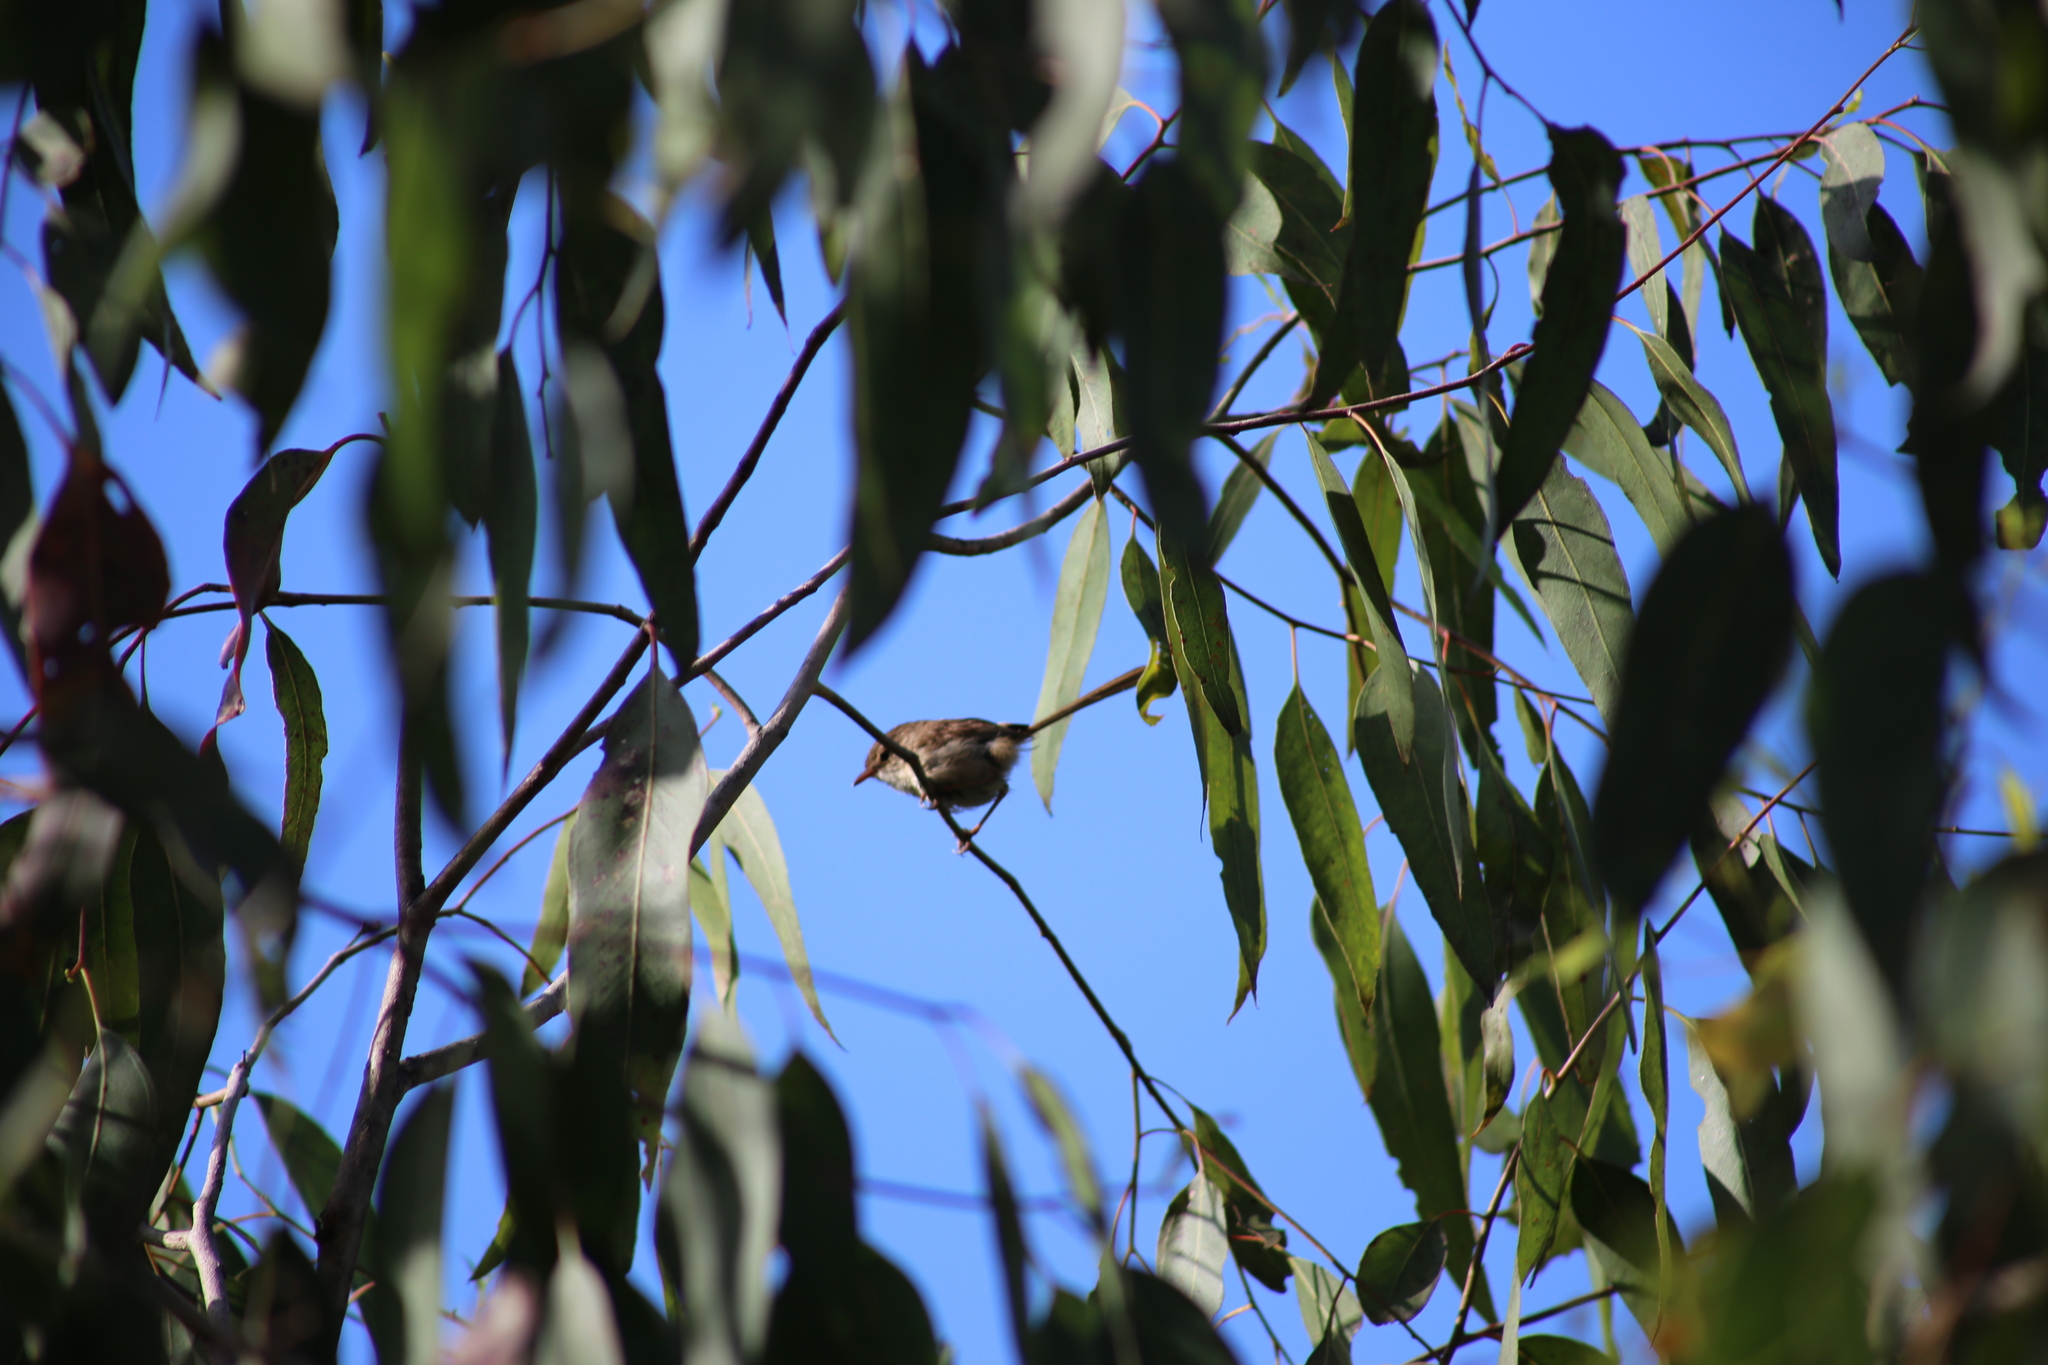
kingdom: Animalia
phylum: Chordata
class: Aves
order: Passeriformes
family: Maluridae
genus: Malurus
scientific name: Malurus melanocephalus
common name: Red-backed fairywren
